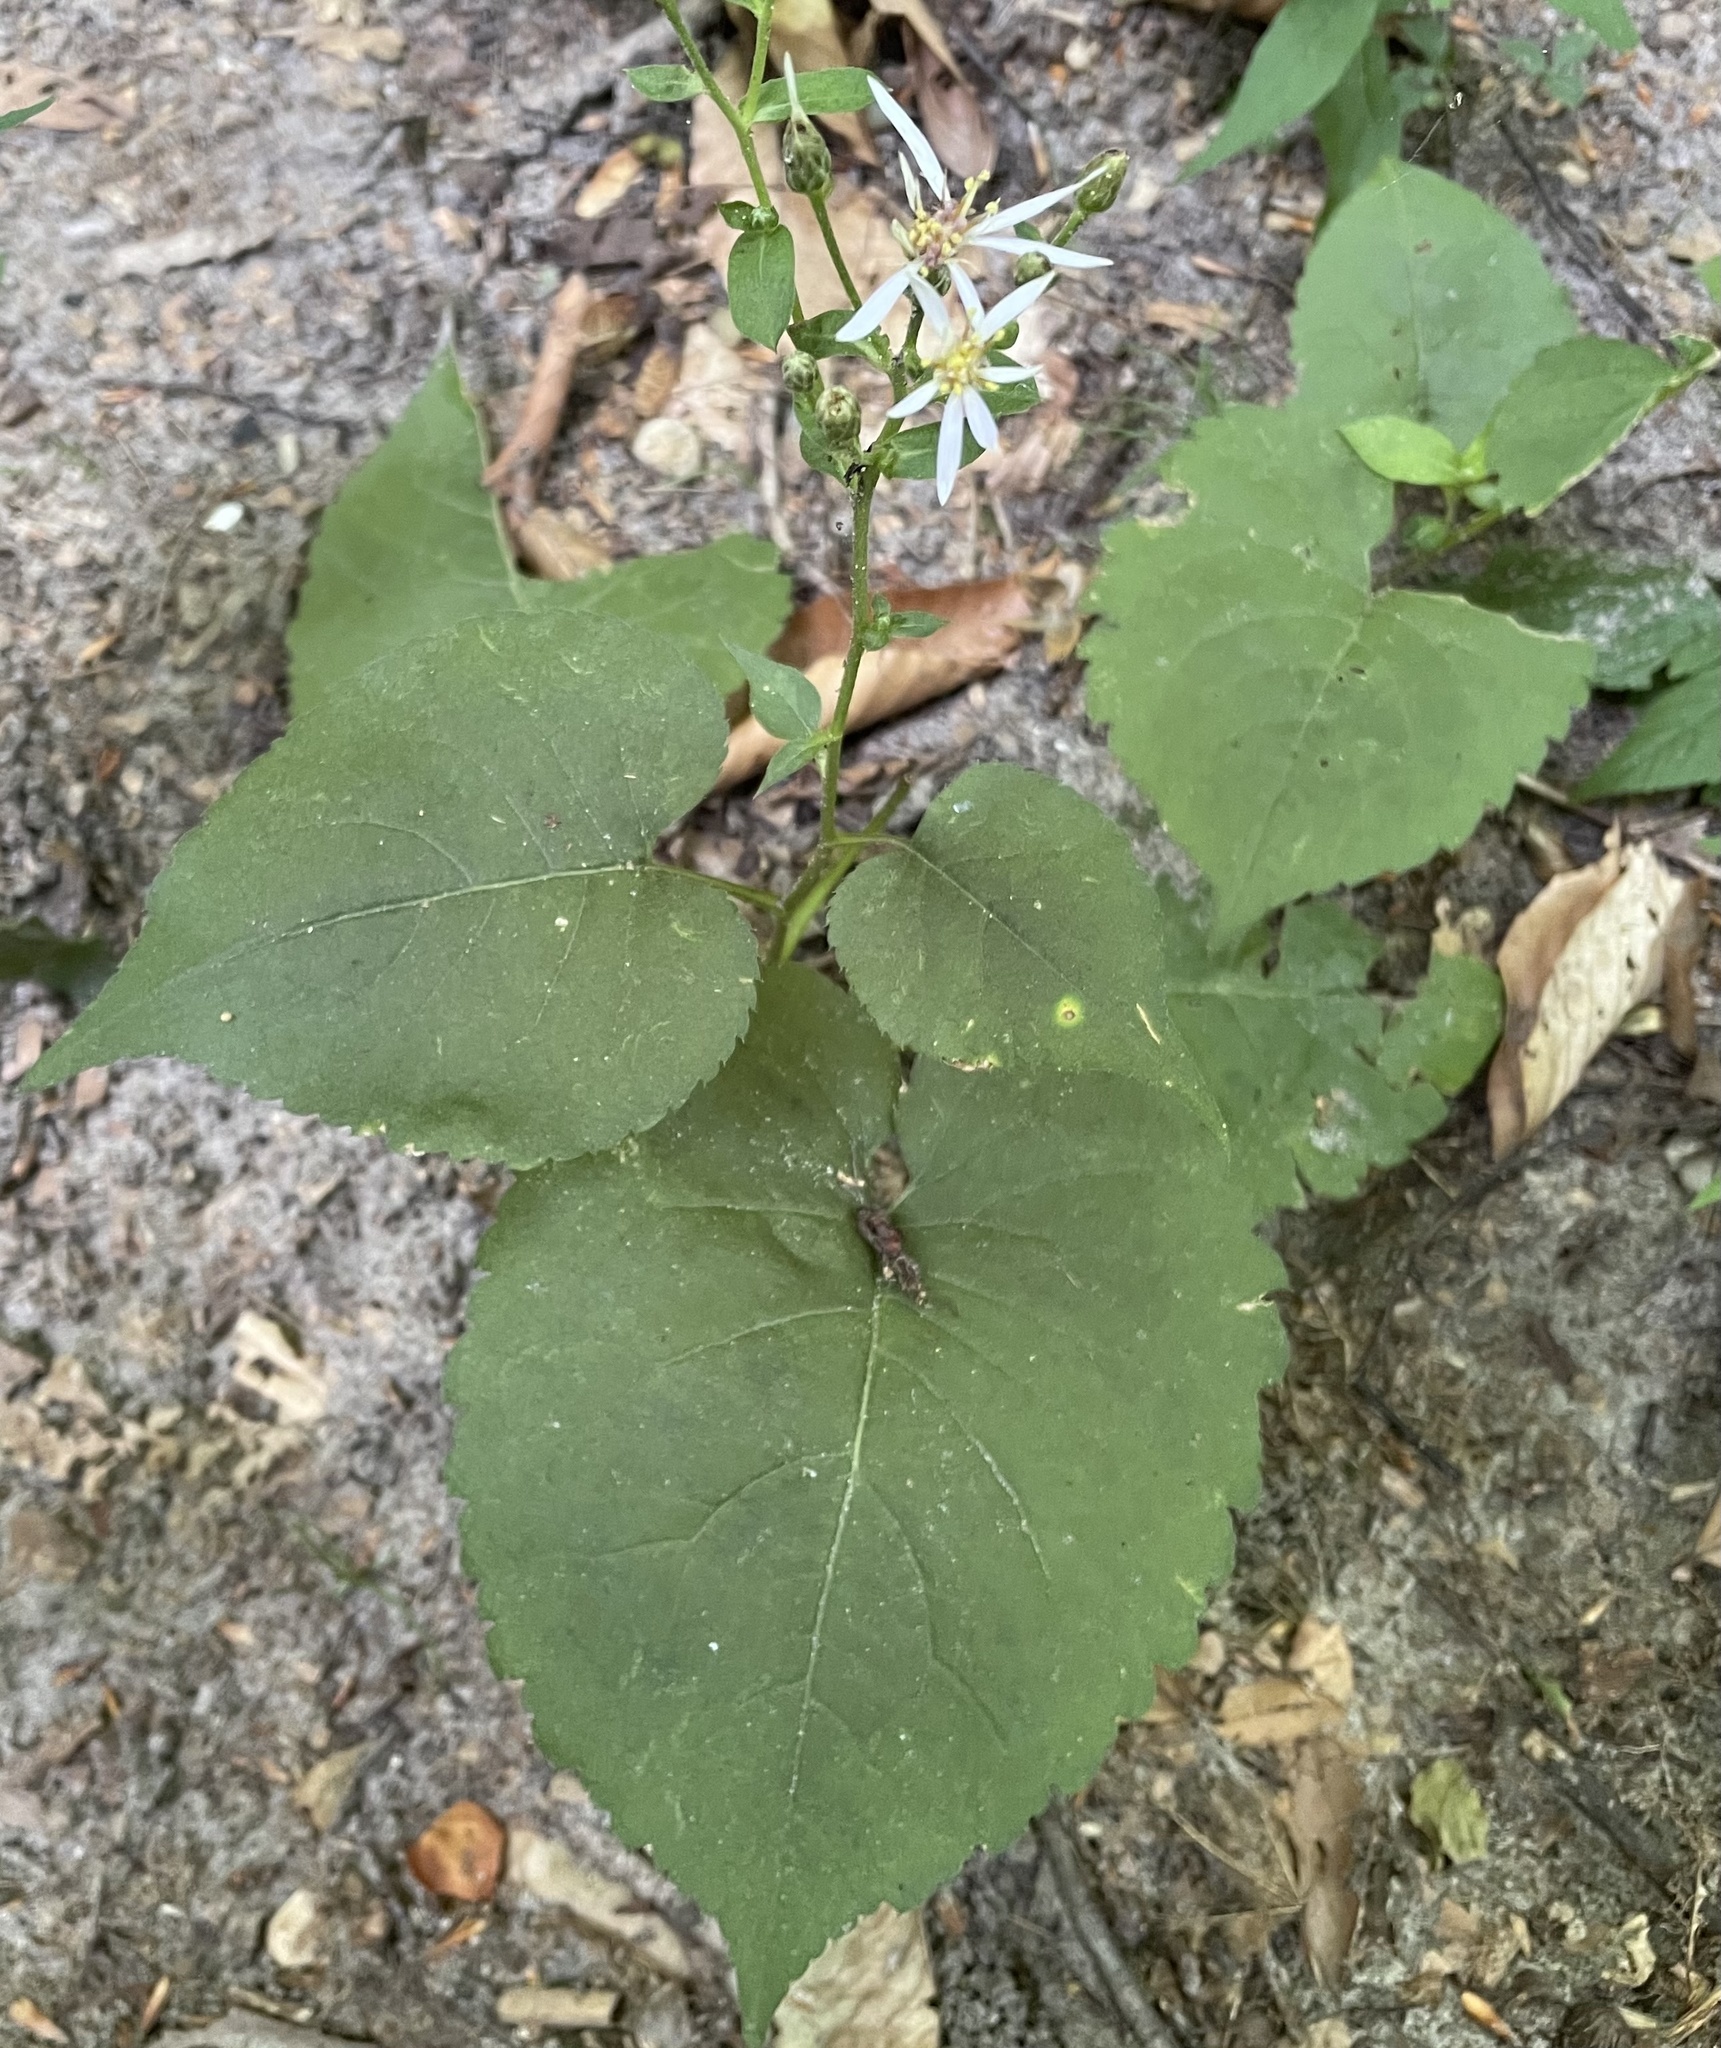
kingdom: Plantae
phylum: Tracheophyta
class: Magnoliopsida
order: Asterales
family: Asteraceae
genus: Eurybia
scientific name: Eurybia macrophylla
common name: Big-leaved aster
